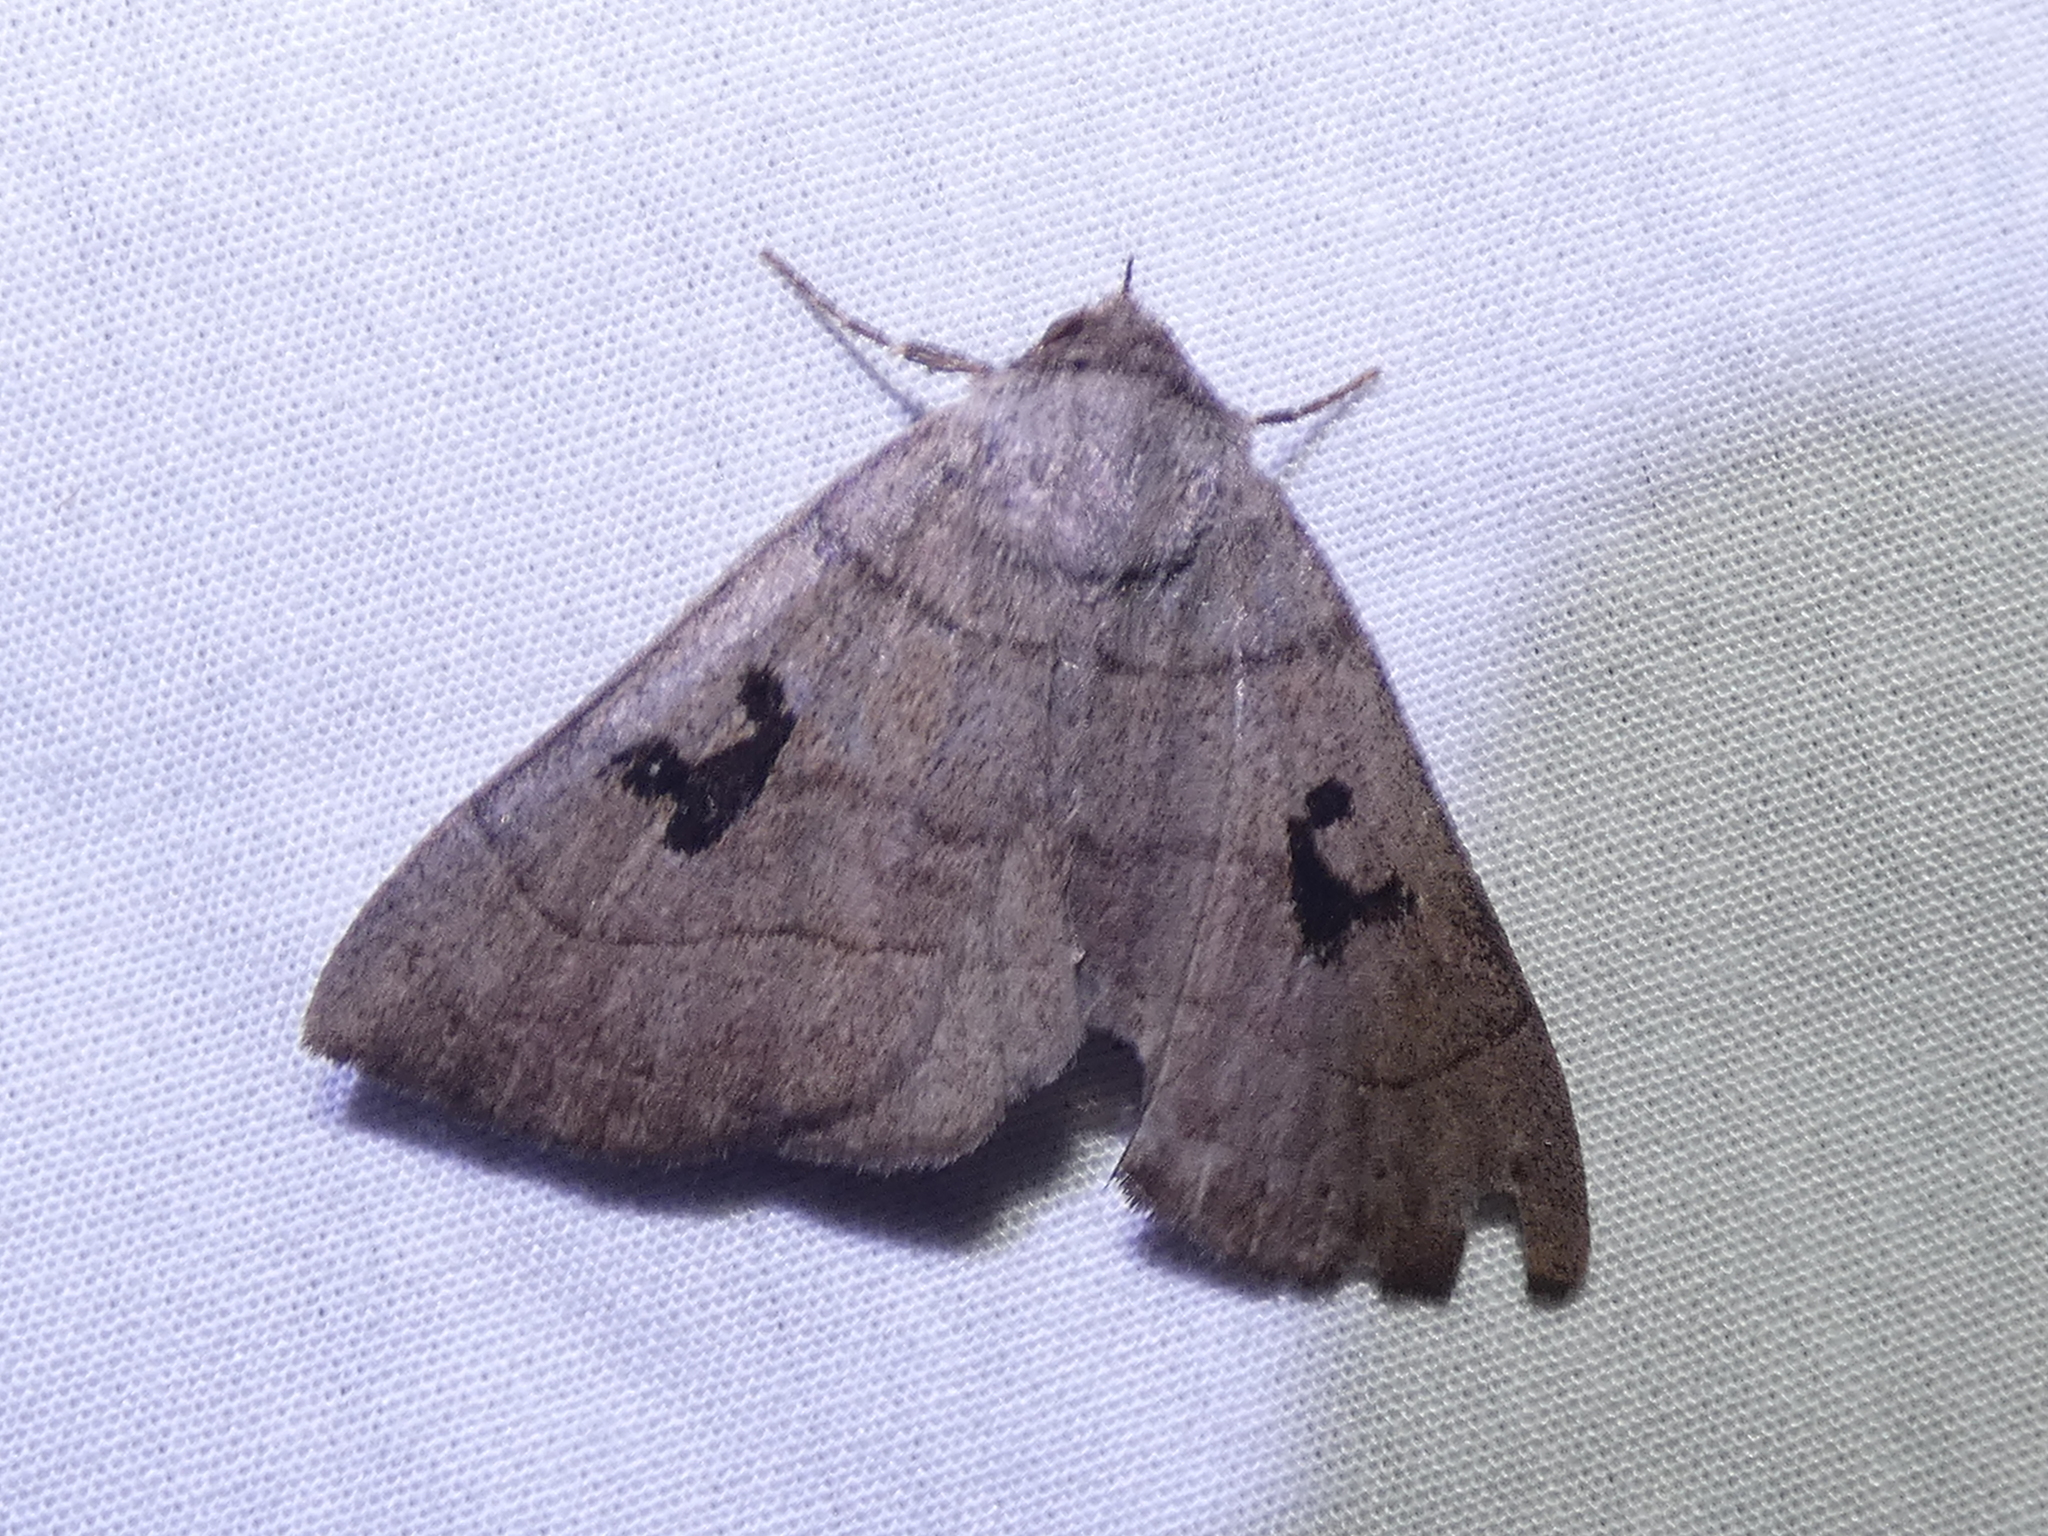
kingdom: Animalia
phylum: Arthropoda
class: Insecta
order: Lepidoptera
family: Erebidae
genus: Panopoda
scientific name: Panopoda carneicosta
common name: Brown panopoda moth
